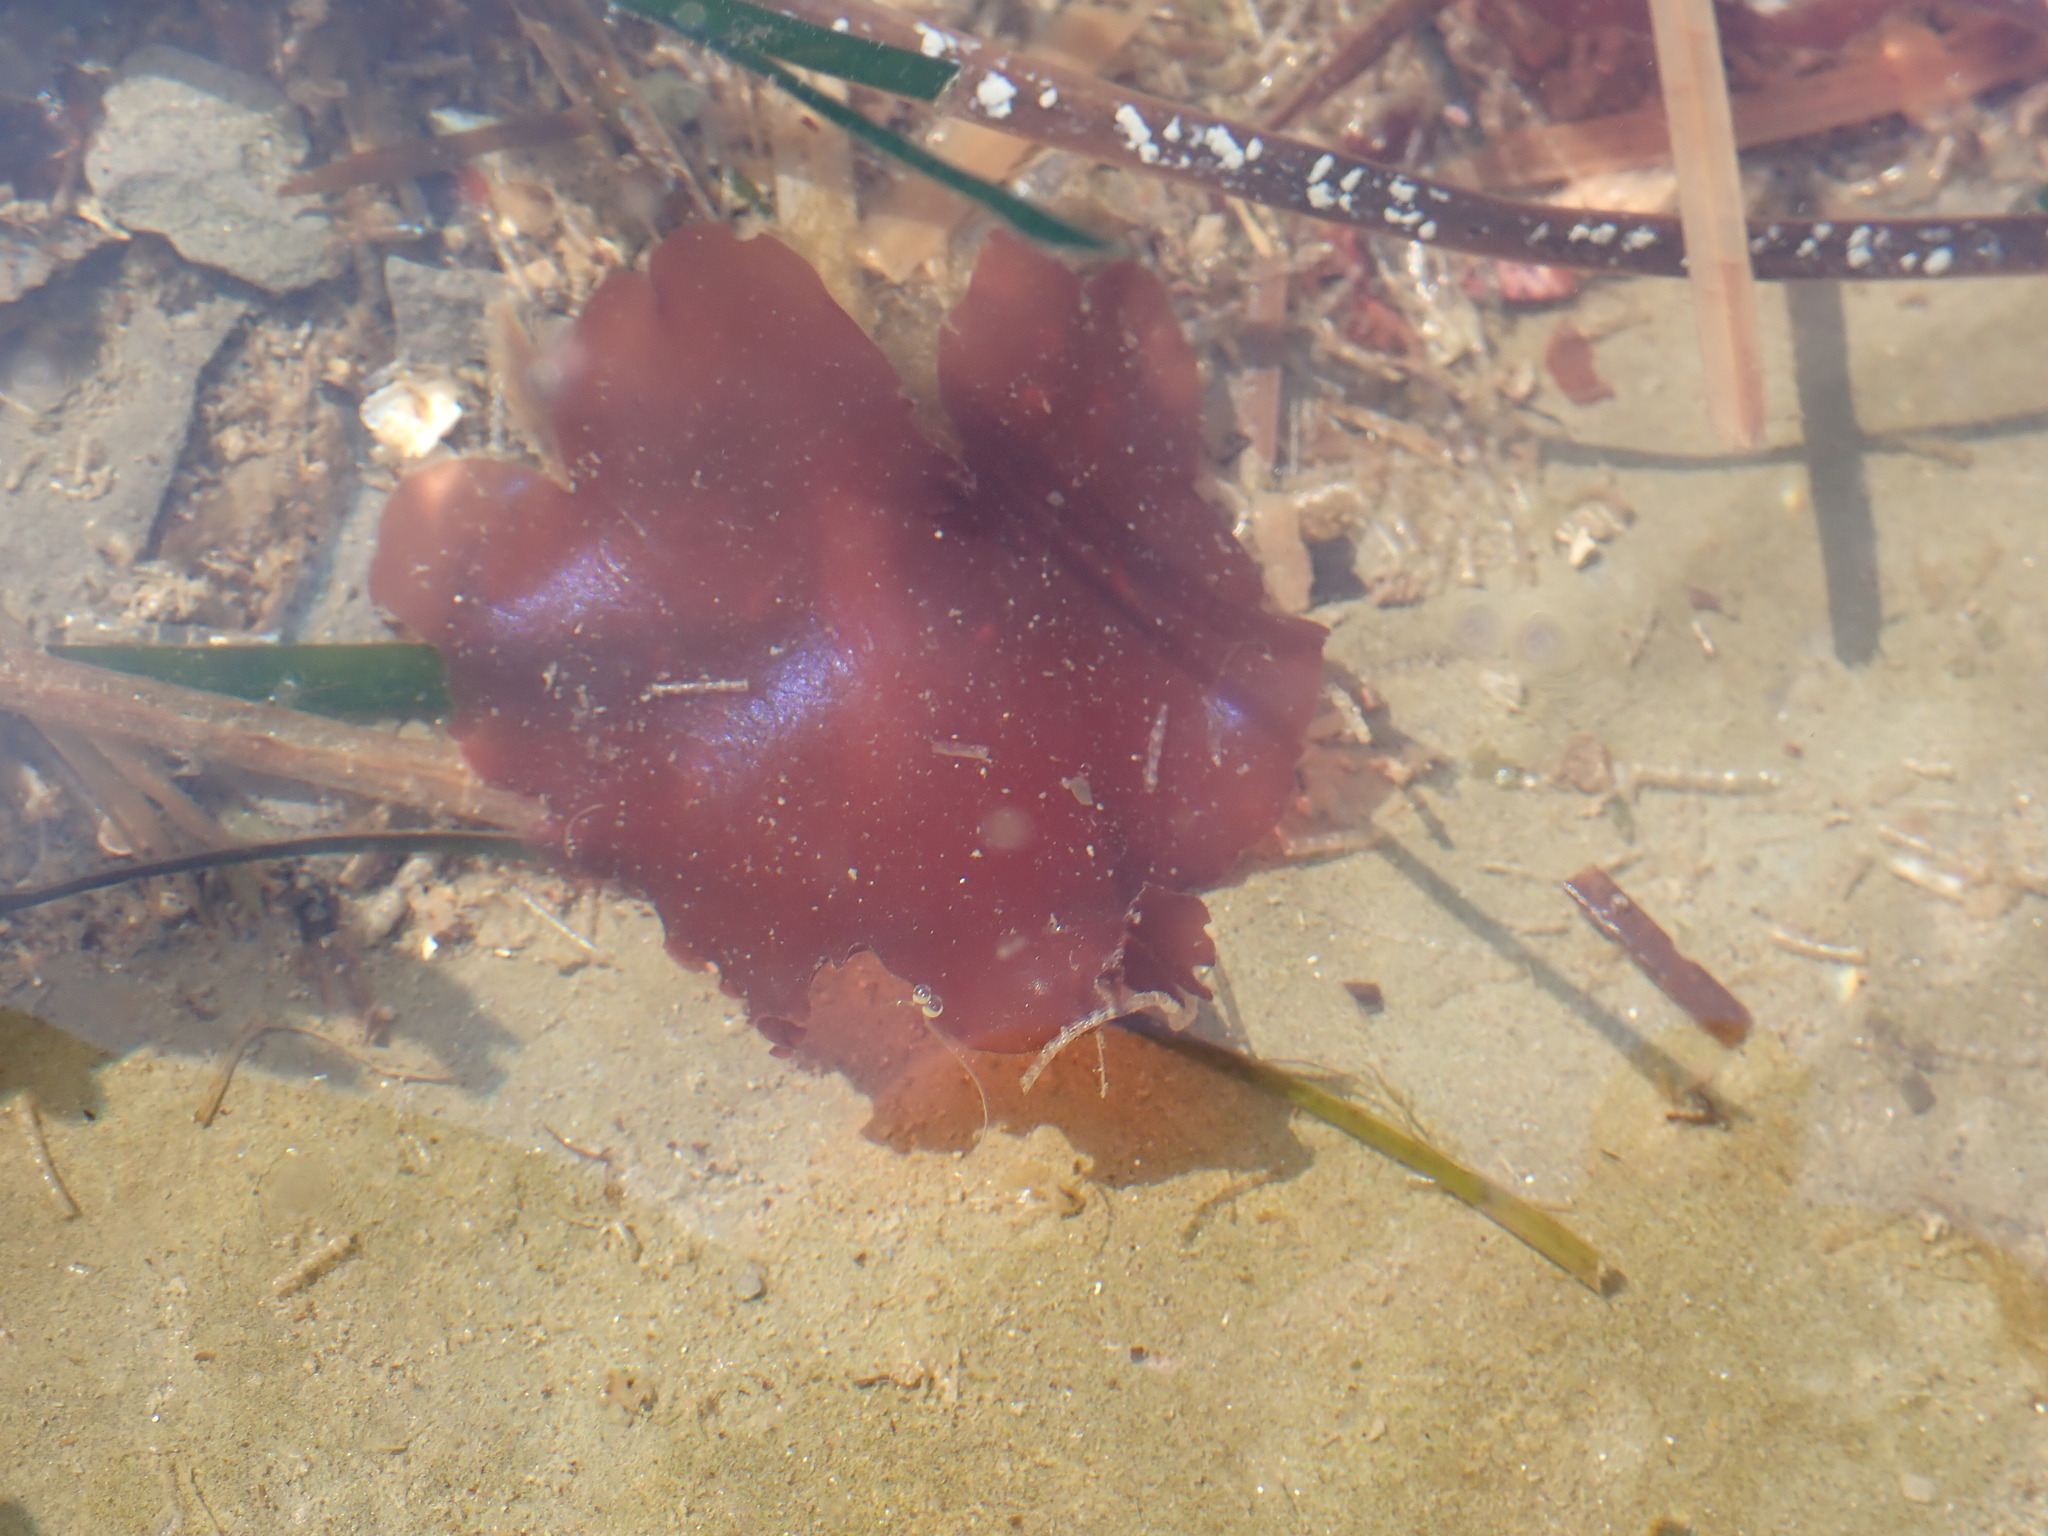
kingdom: Plantae
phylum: Rhodophyta
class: Florideophyceae
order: Gigartinales
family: Gigartinaceae
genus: Mazzaella
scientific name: Mazzaella splendens
